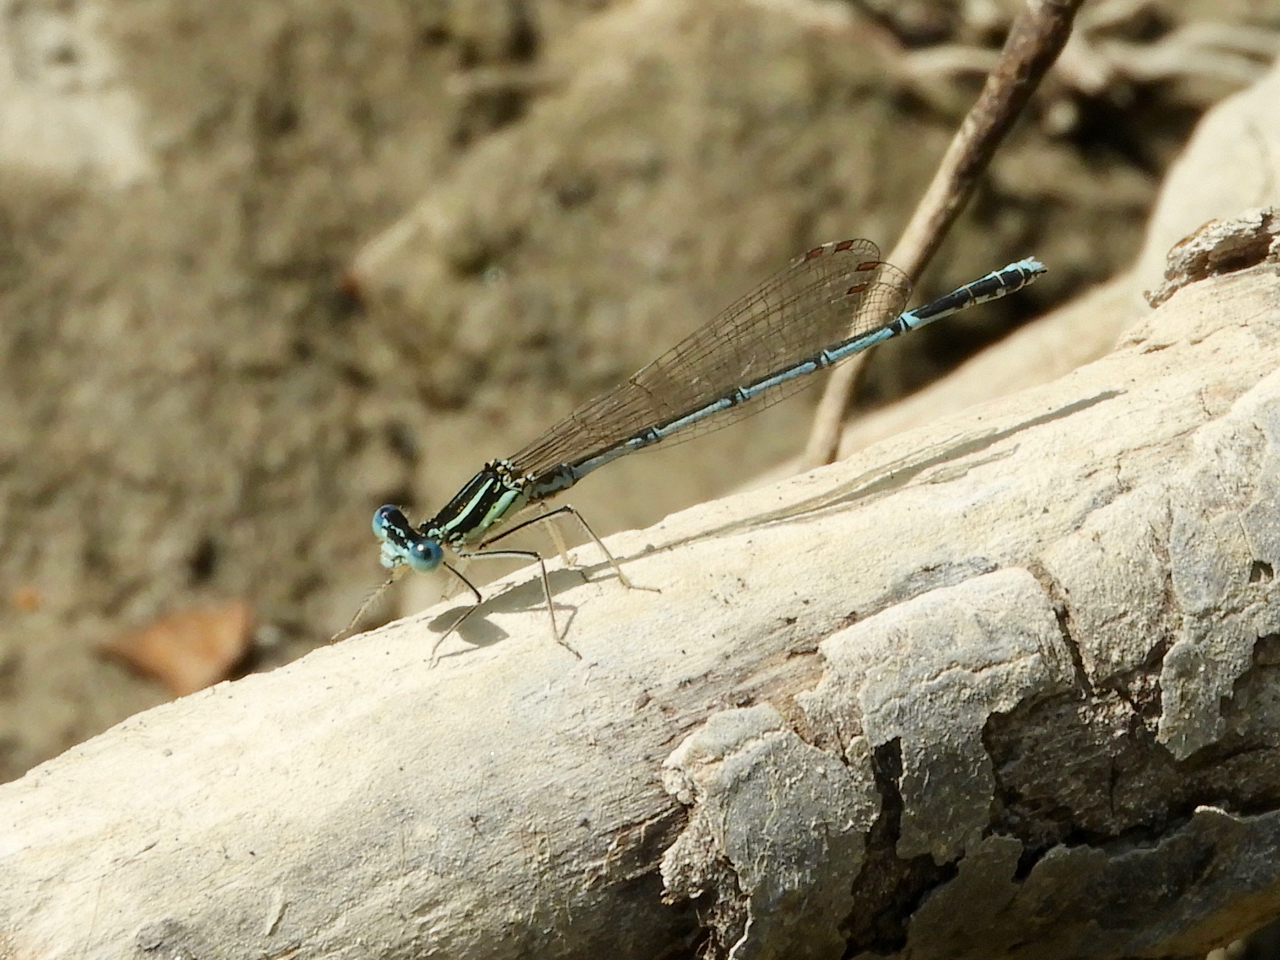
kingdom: Animalia
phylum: Arthropoda
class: Insecta
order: Odonata
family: Platycnemididae
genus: Platycnemis
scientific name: Platycnemis pennipes
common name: White-legged damselfly
